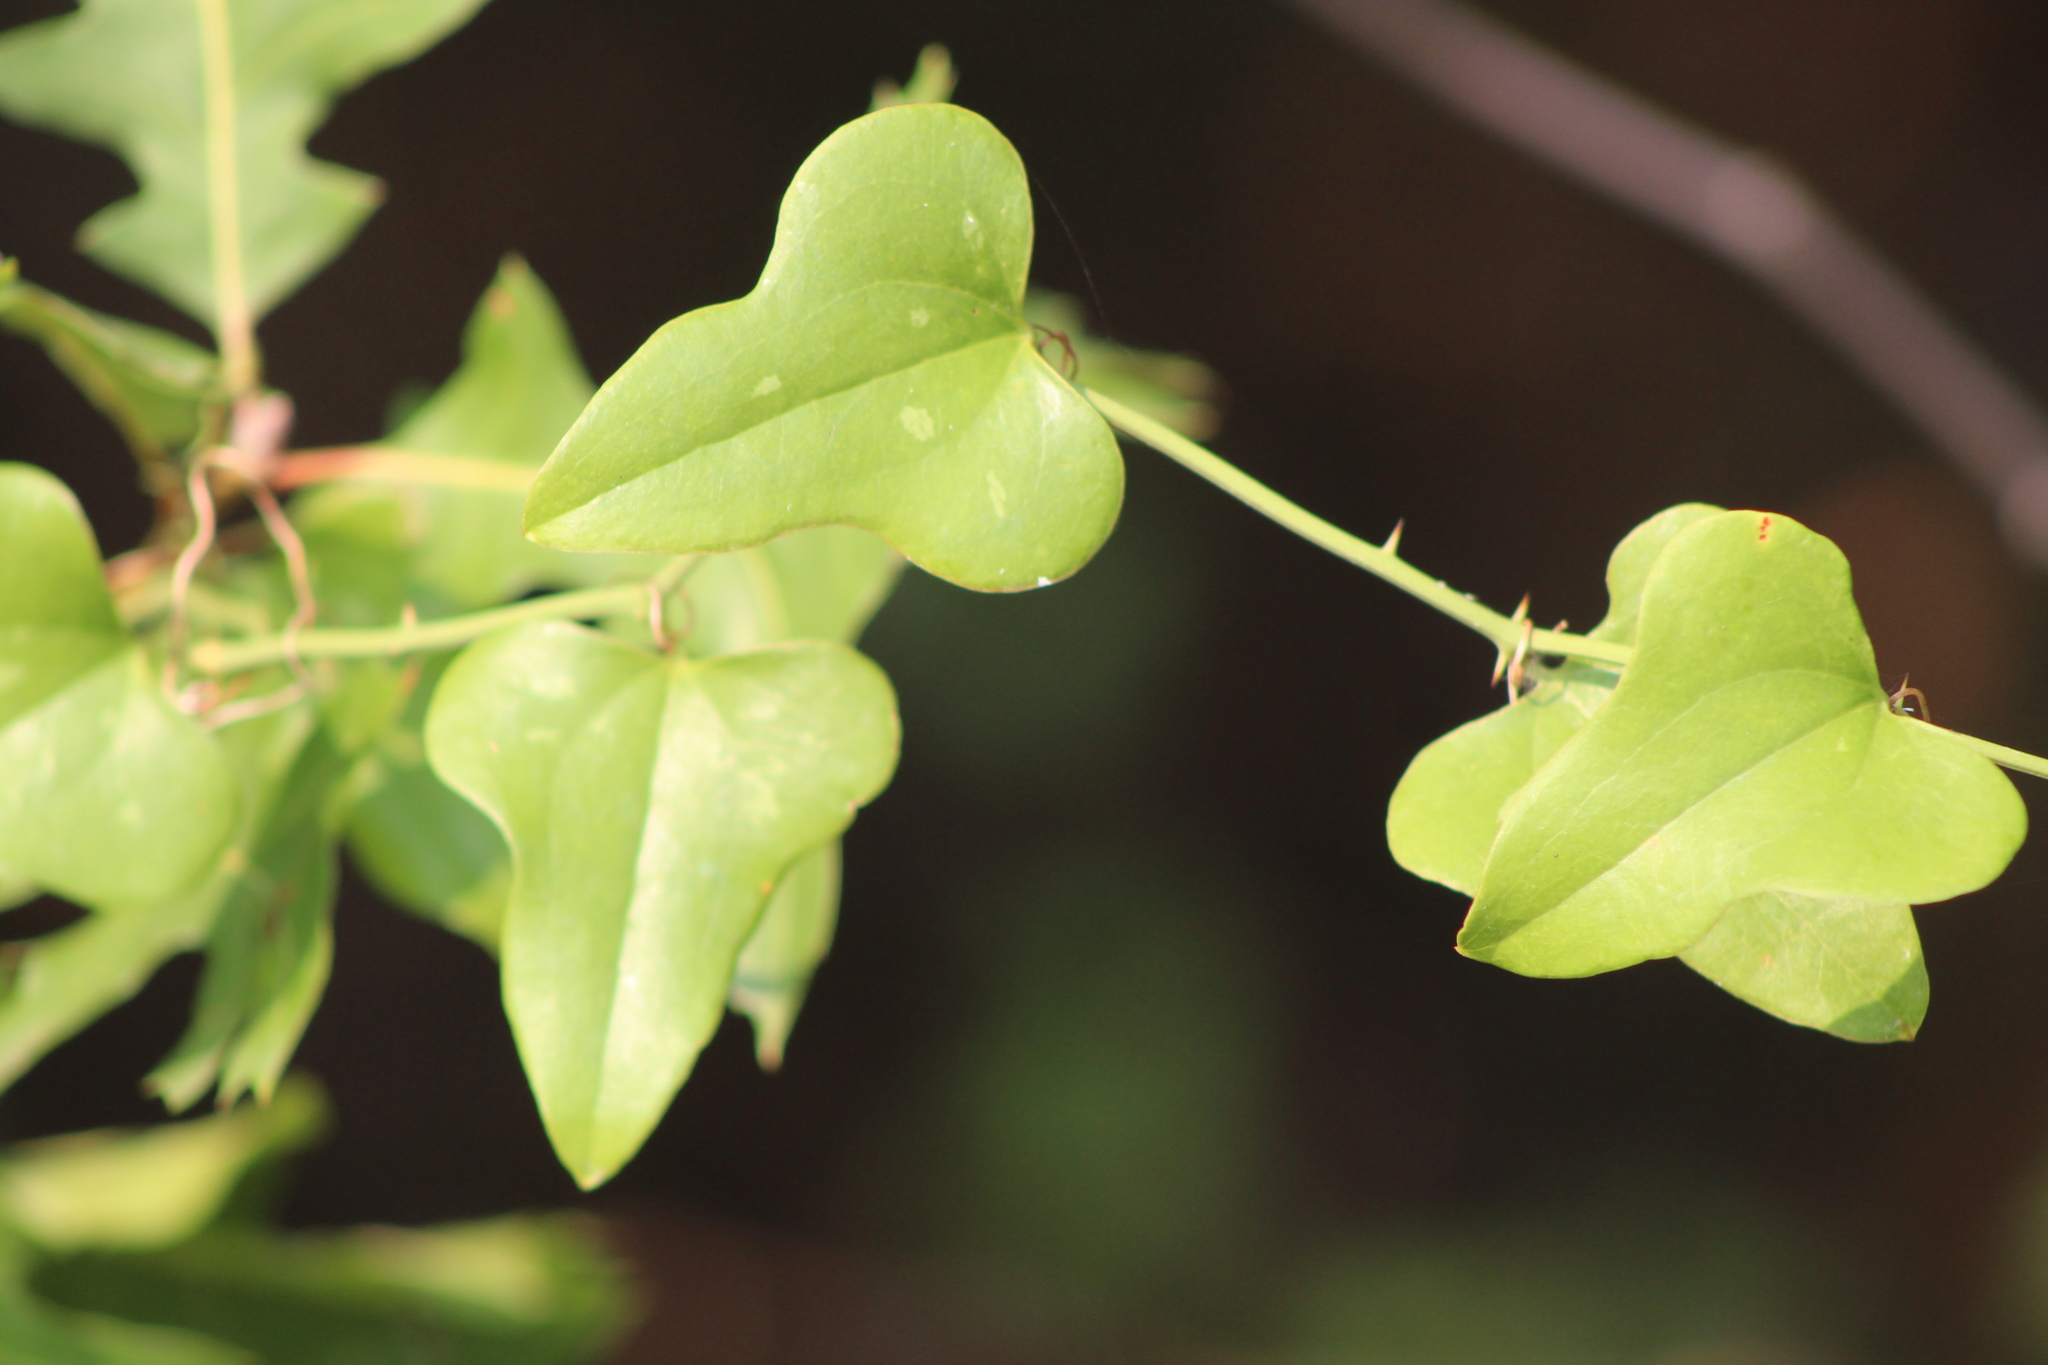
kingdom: Plantae
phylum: Tracheophyta
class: Liliopsida
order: Liliales
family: Smilacaceae
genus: Smilax
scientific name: Smilax bona-nox
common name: Catbrier
